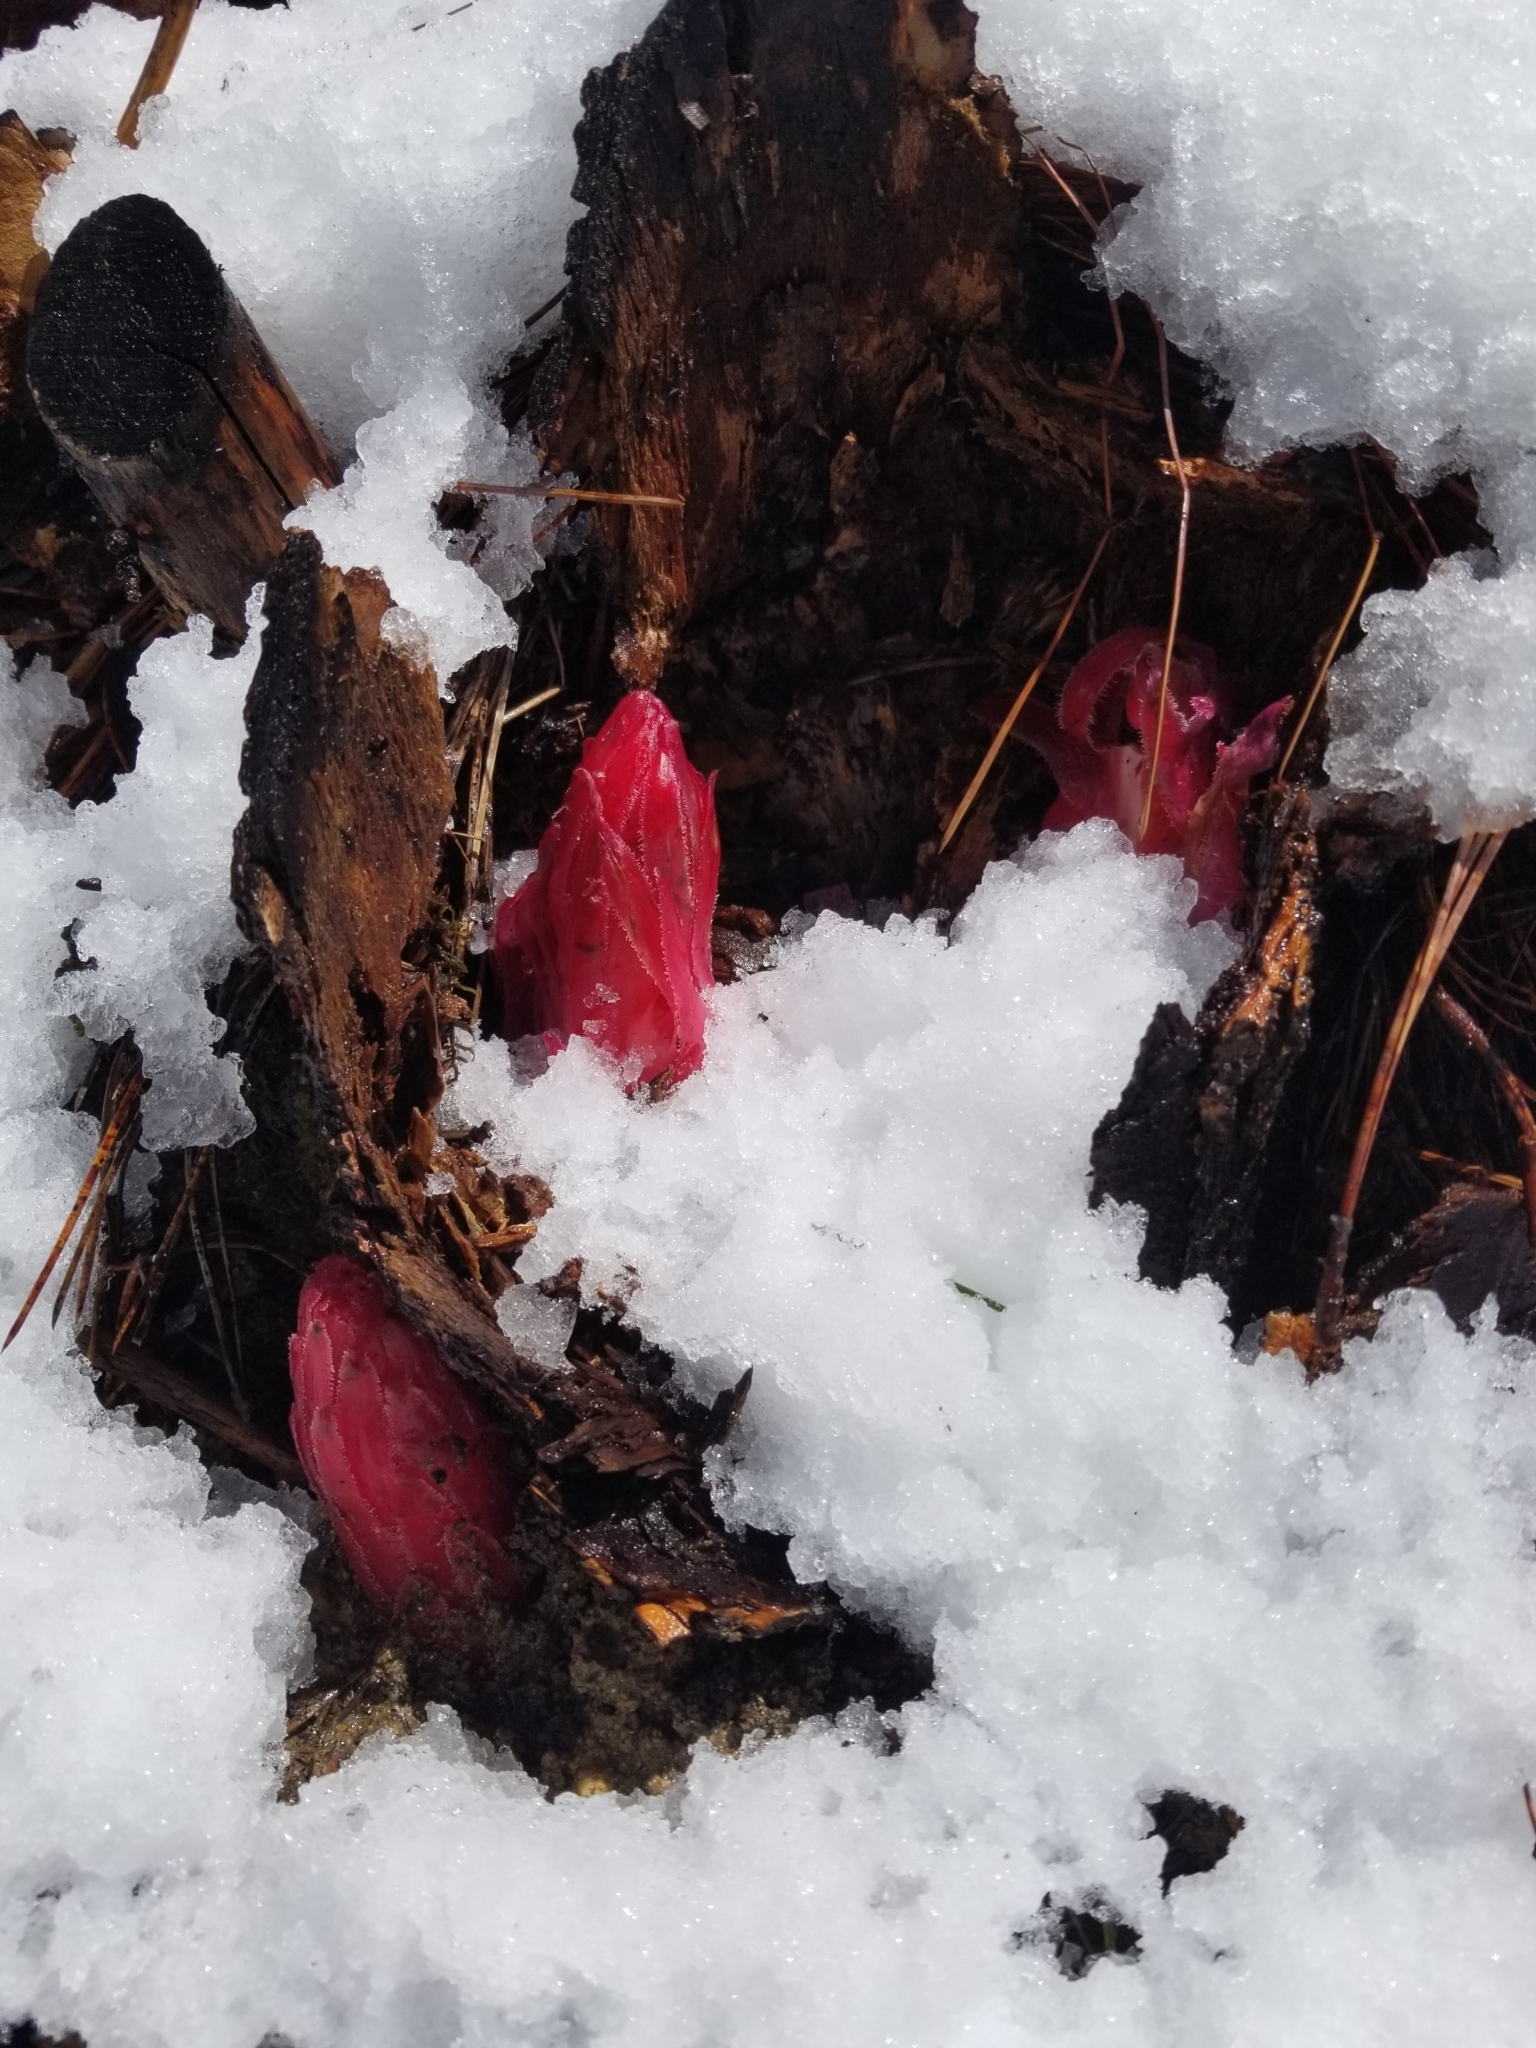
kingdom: Plantae
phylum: Tracheophyta
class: Magnoliopsida
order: Ericales
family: Ericaceae
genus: Sarcodes
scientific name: Sarcodes sanguinea
